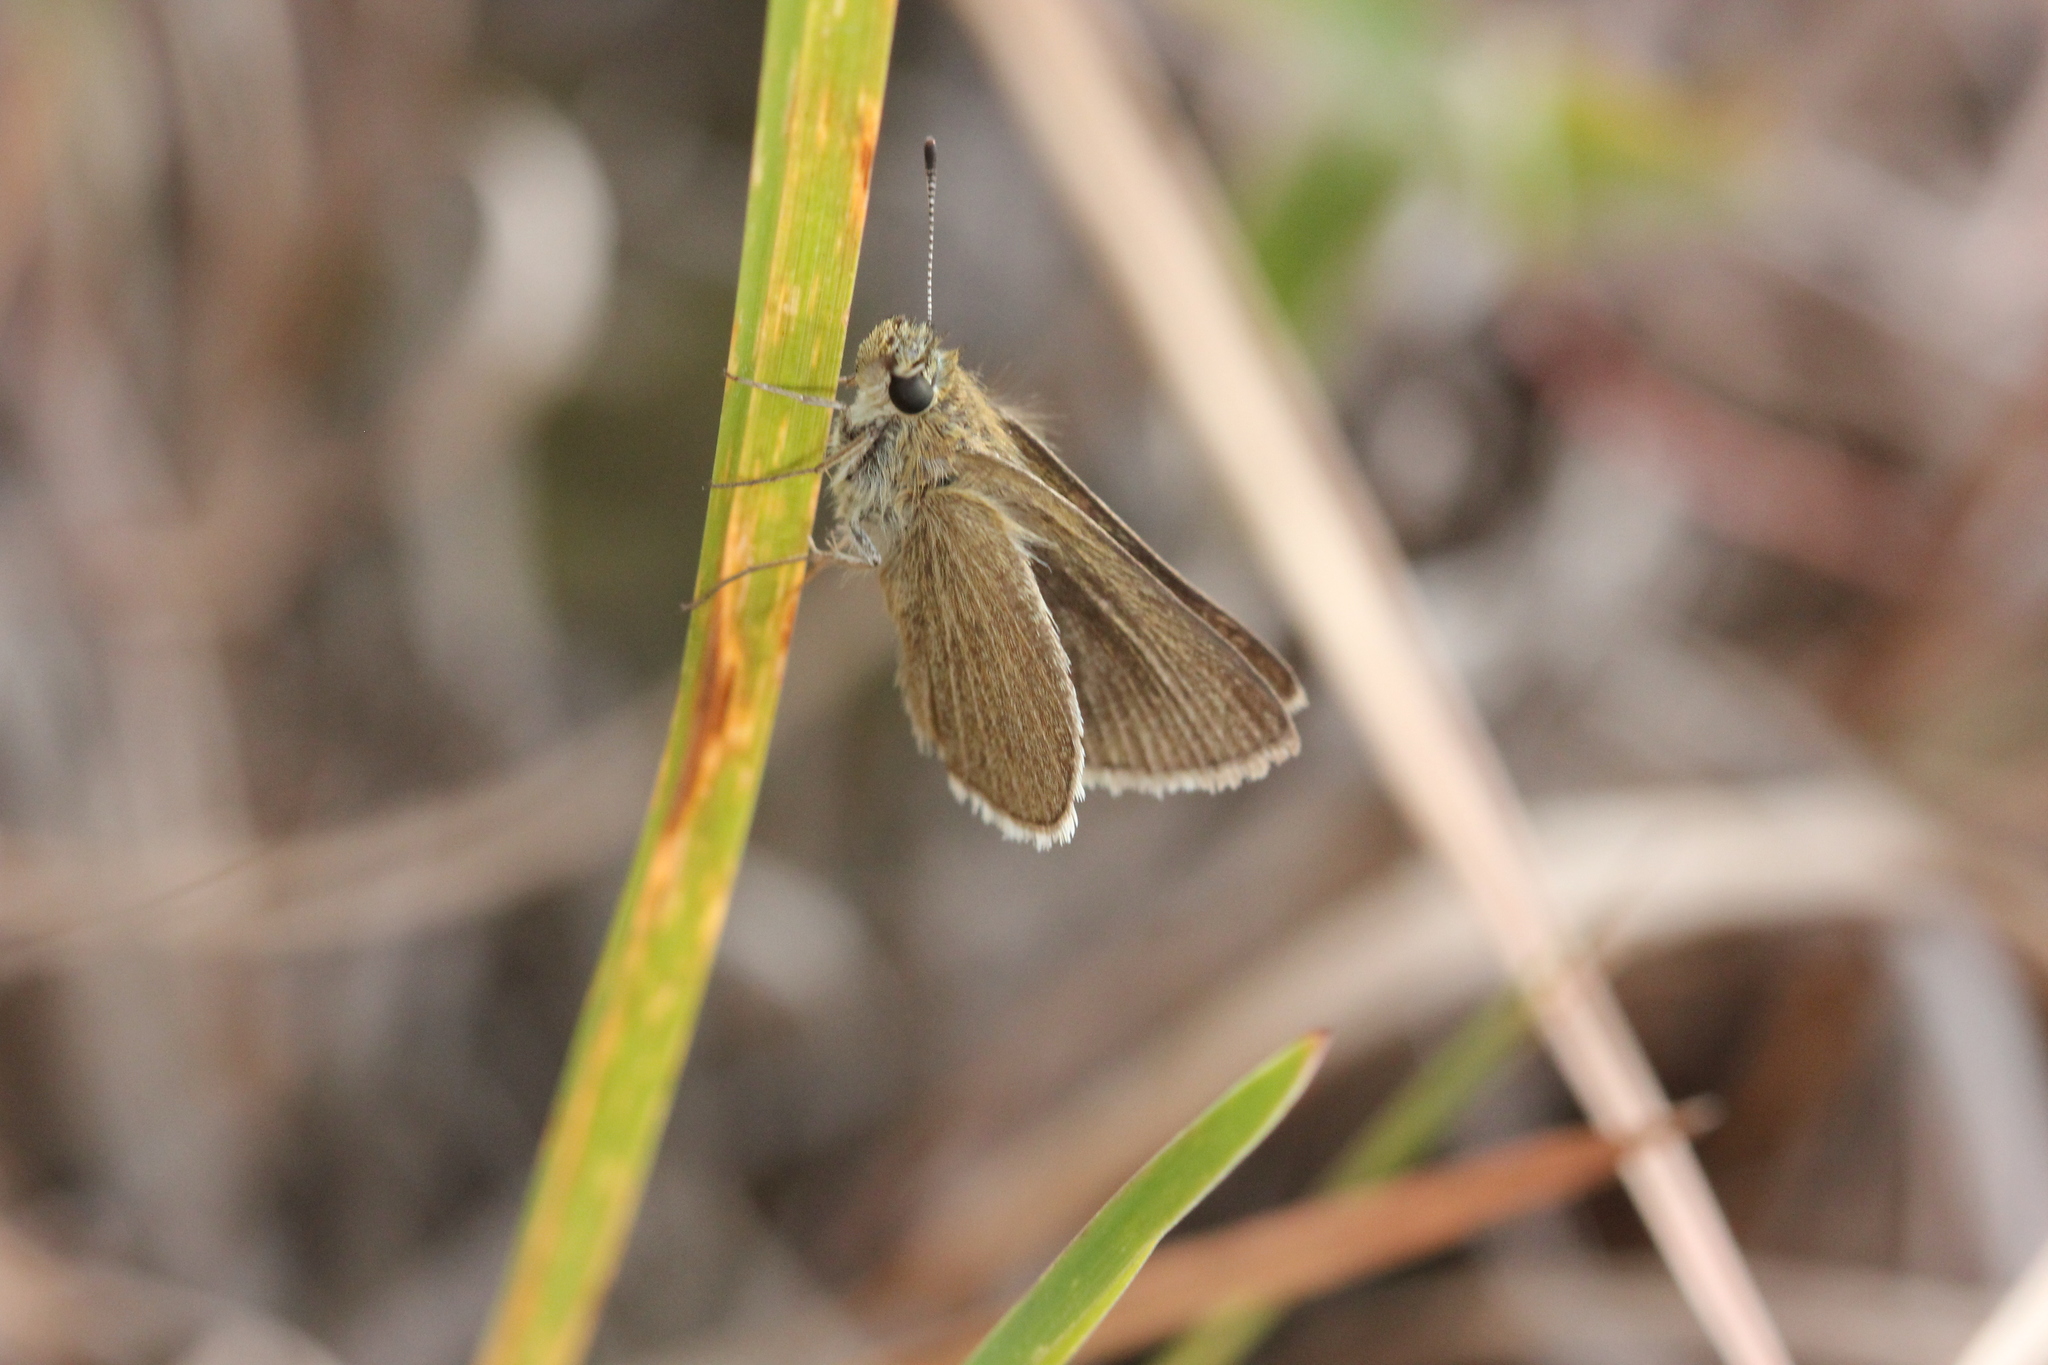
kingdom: Animalia
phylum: Arthropoda
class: Insecta
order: Lepidoptera
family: Hesperiidae
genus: Nastra
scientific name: Nastra lherminier
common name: Swarthy skipper
